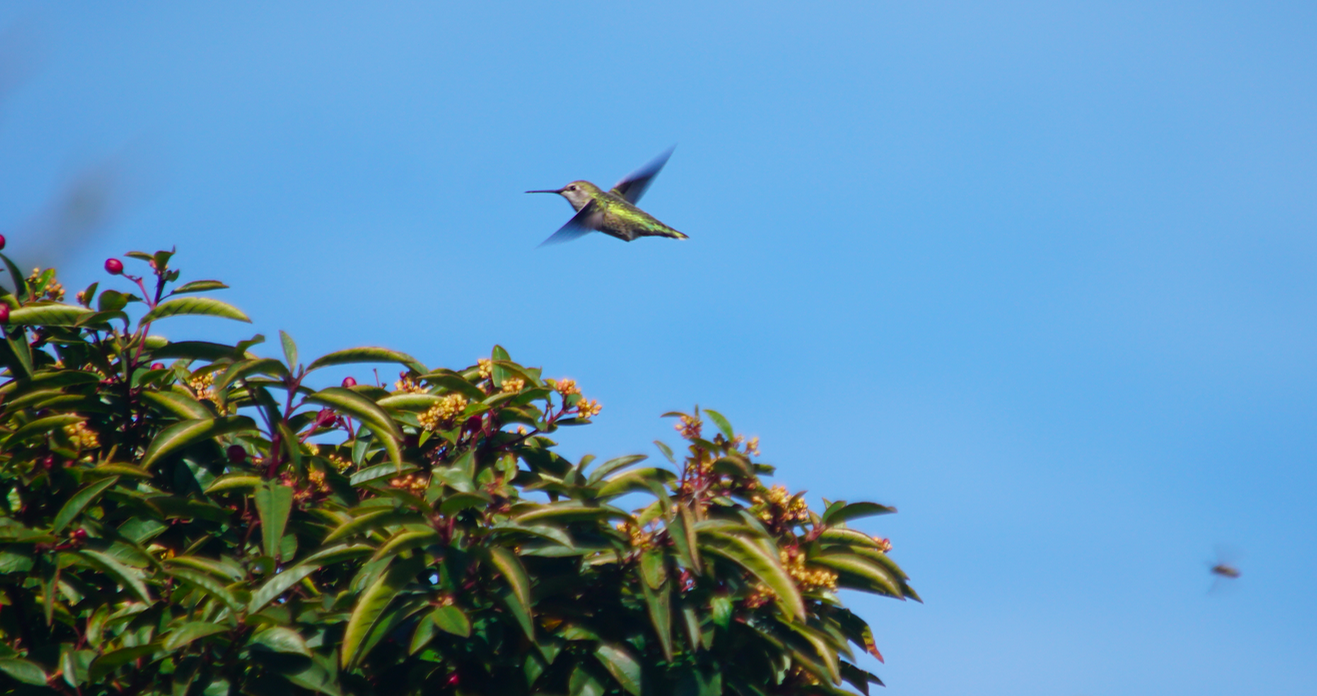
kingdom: Animalia
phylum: Chordata
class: Aves
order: Apodiformes
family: Trochilidae
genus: Calypte
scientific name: Calypte anna
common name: Anna's hummingbird
